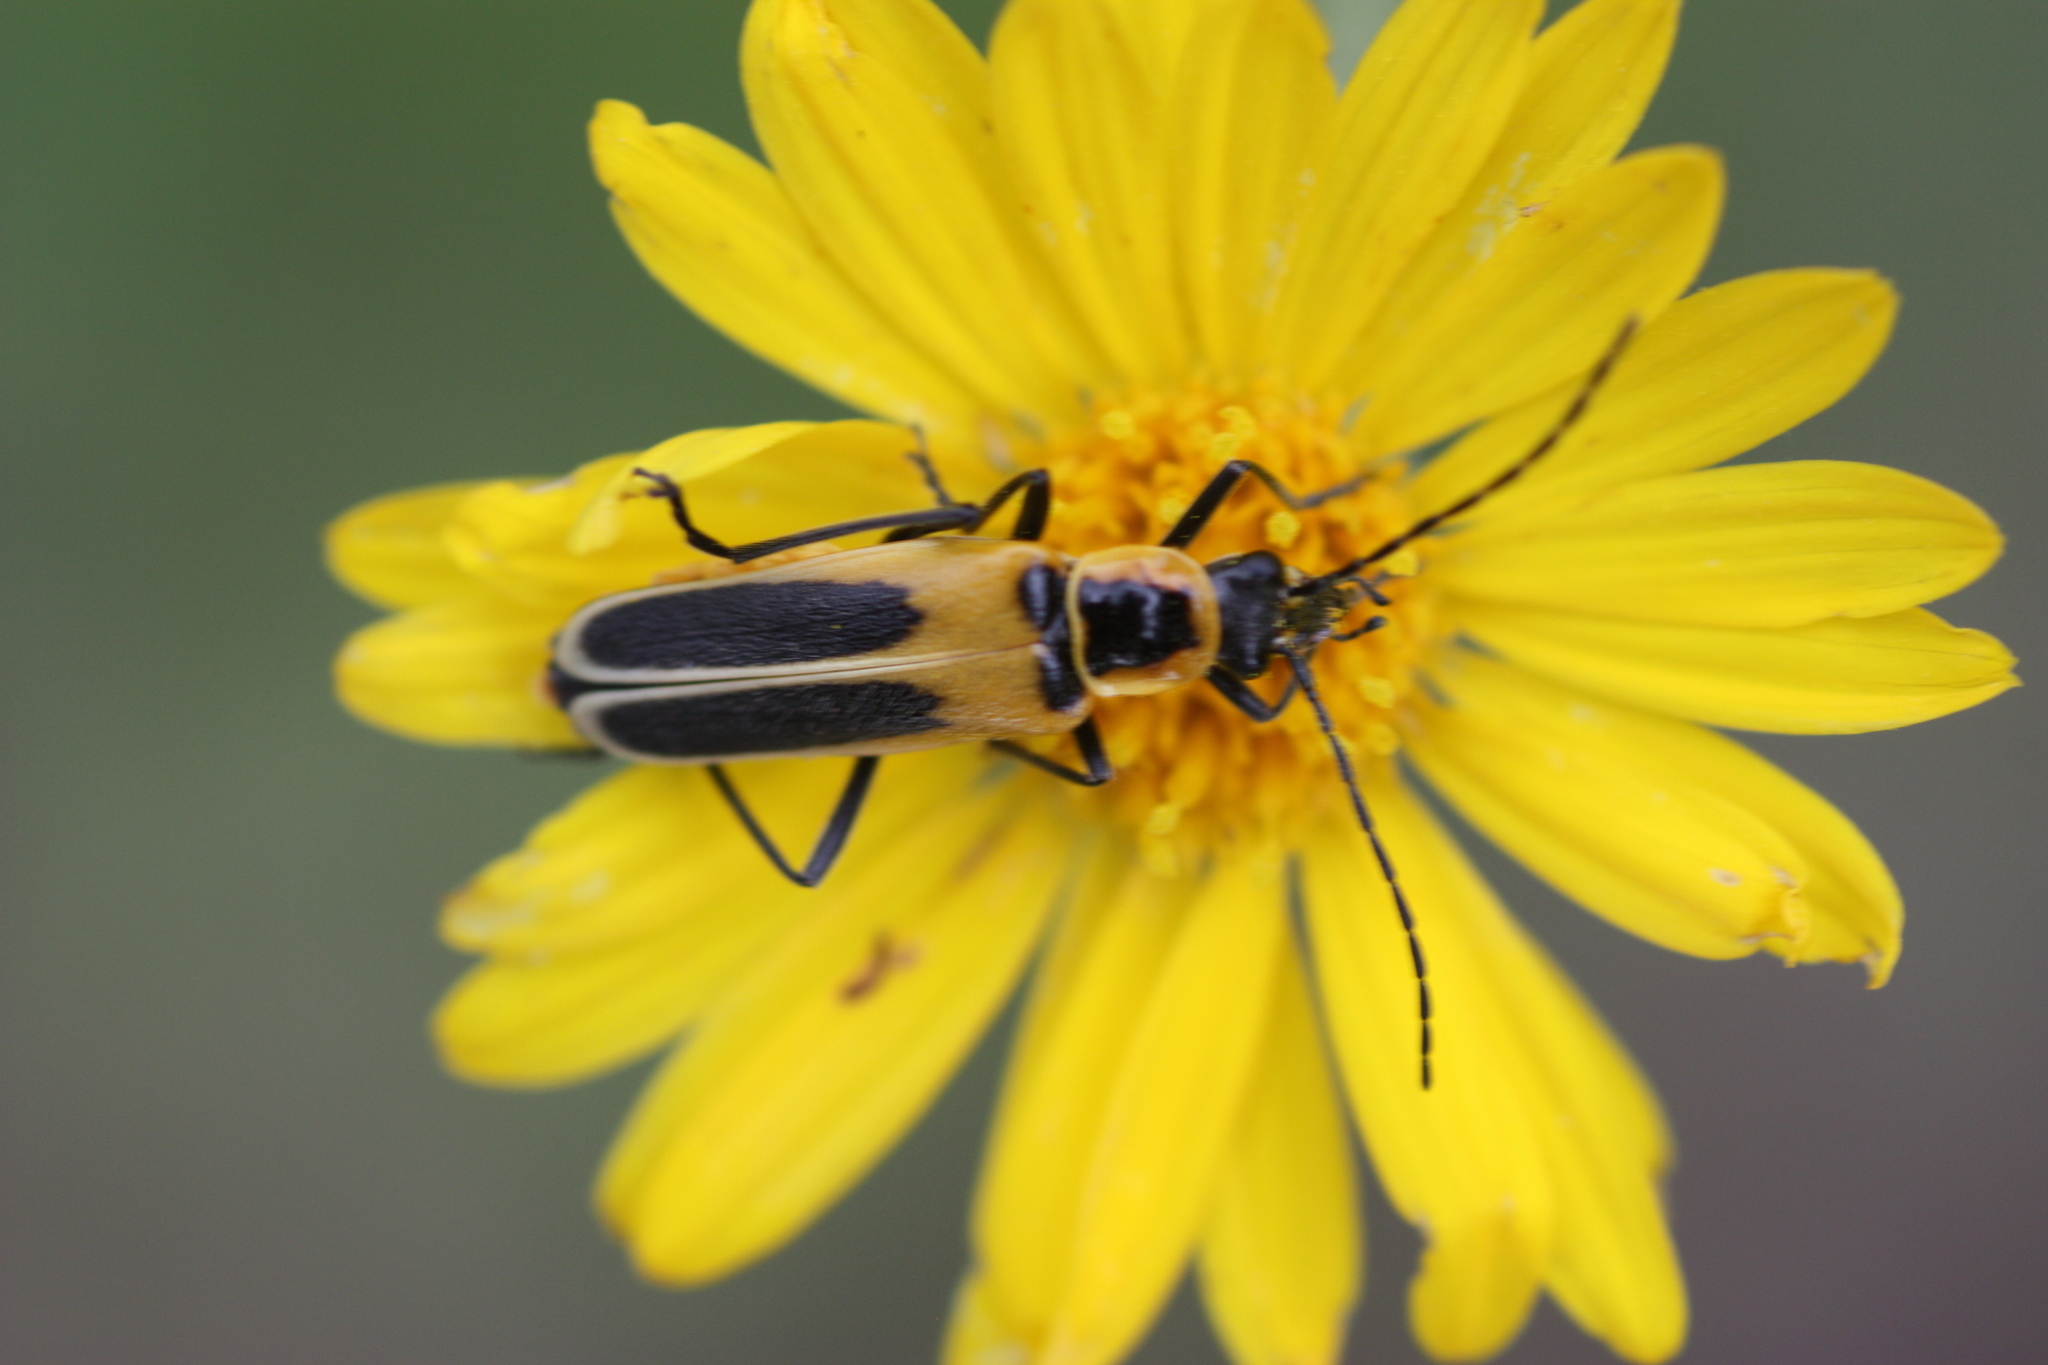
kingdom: Animalia
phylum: Arthropoda
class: Insecta
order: Coleoptera
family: Cantharidae
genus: Chauliognathus
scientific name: Chauliognathus lewisi
